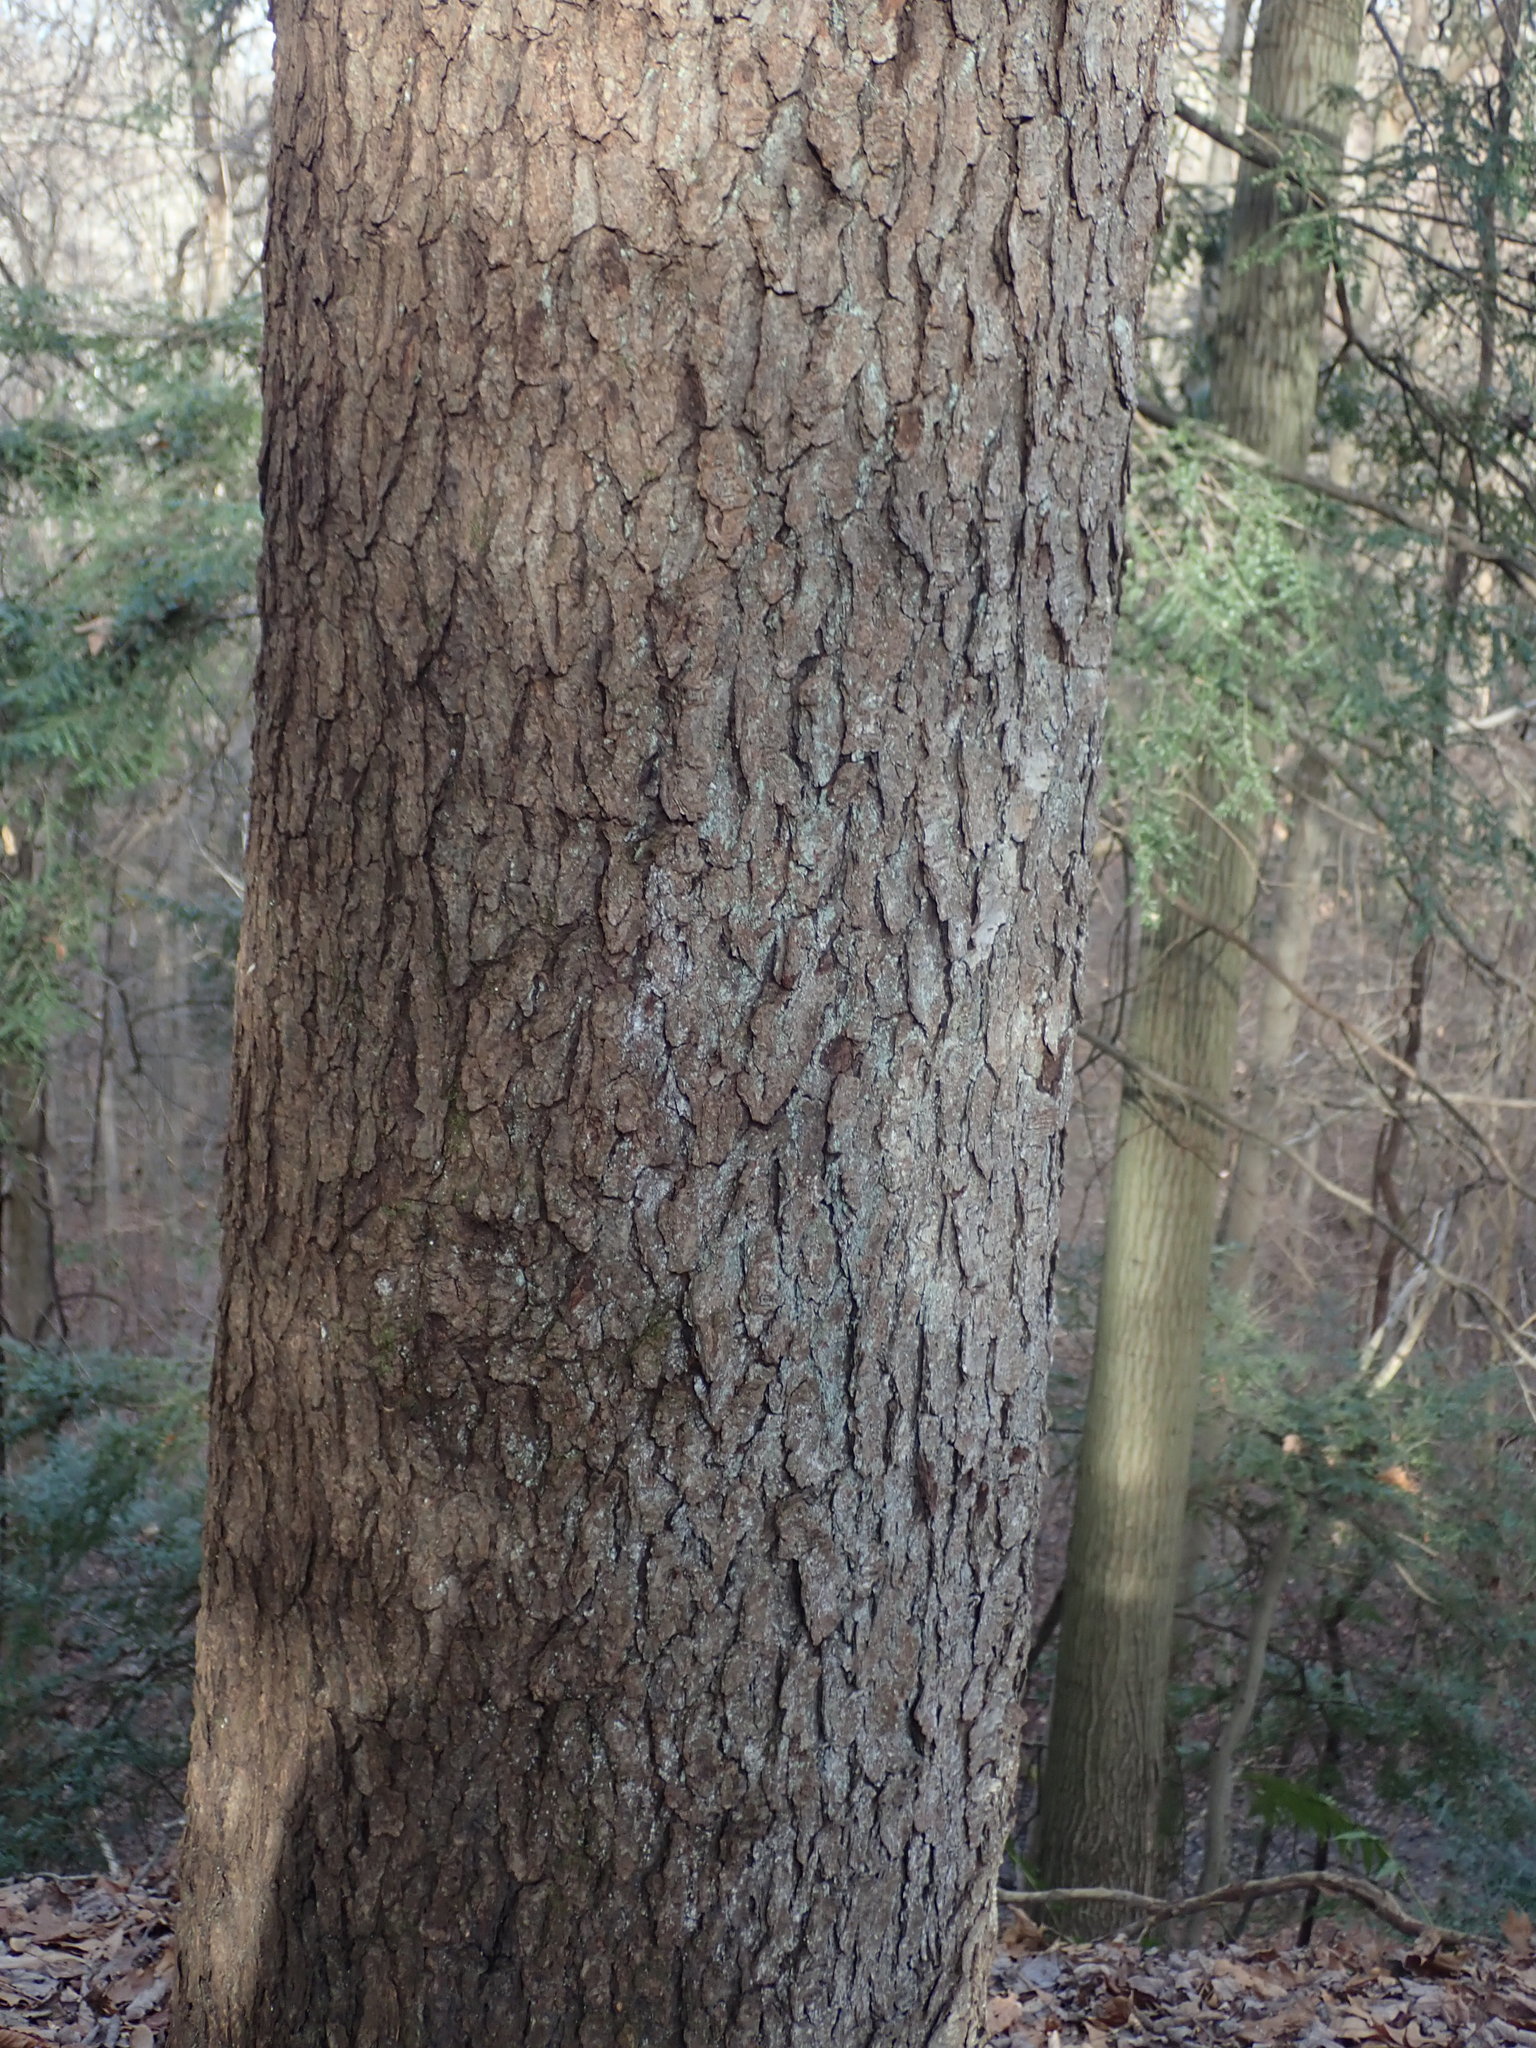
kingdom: Plantae
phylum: Tracheophyta
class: Pinopsida
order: Pinales
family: Pinaceae
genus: Tsuga
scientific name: Tsuga canadensis
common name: Eastern hemlock
